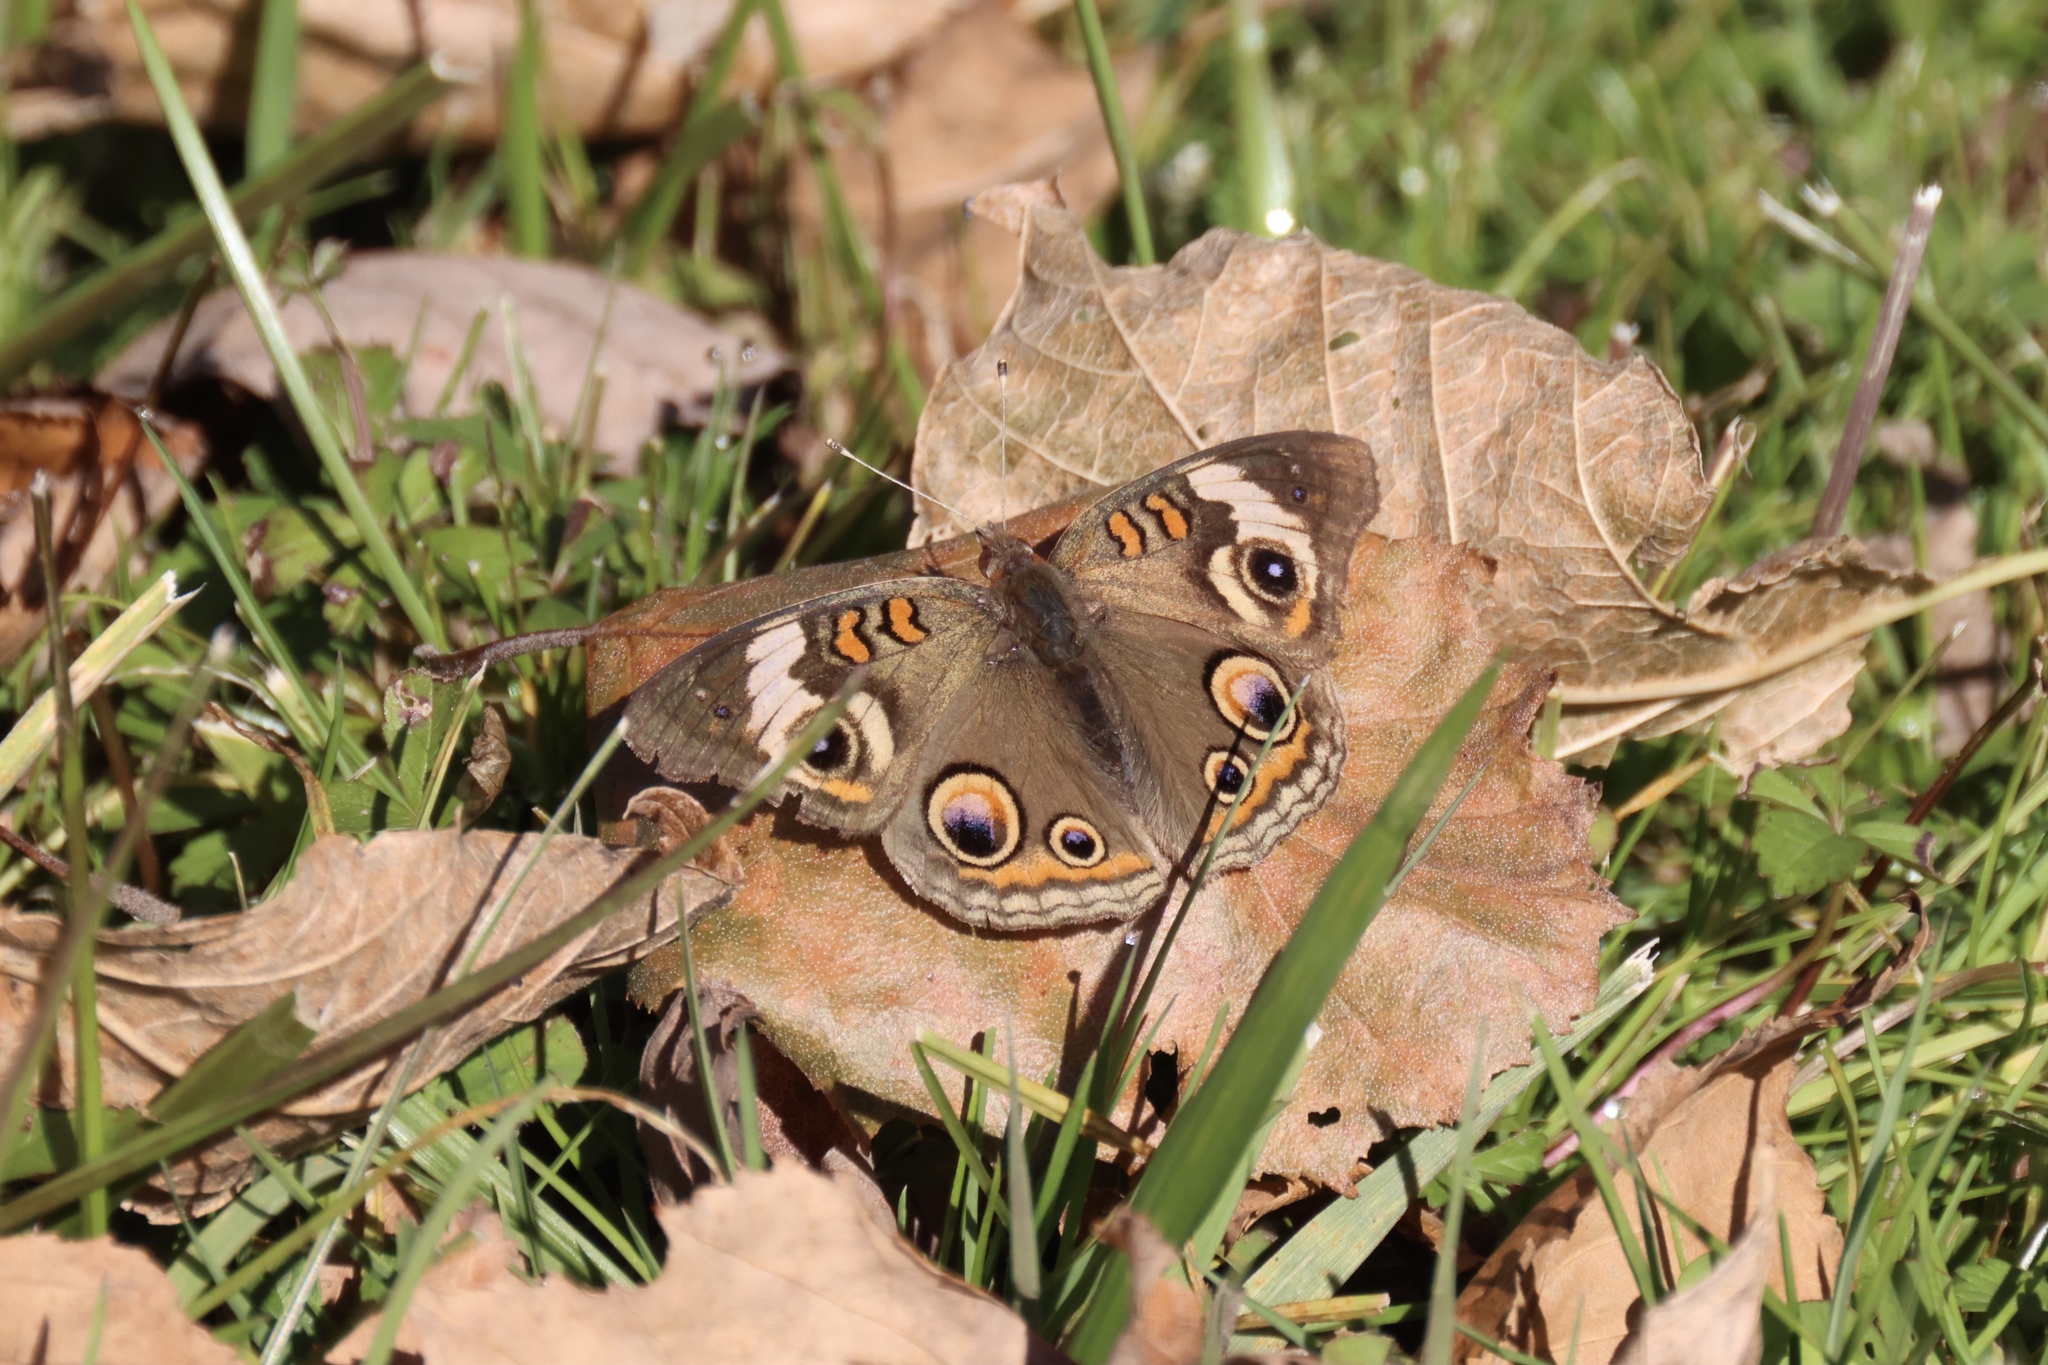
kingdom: Animalia
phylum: Arthropoda
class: Insecta
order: Lepidoptera
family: Nymphalidae
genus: Junonia
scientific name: Junonia coenia
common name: Common buckeye
